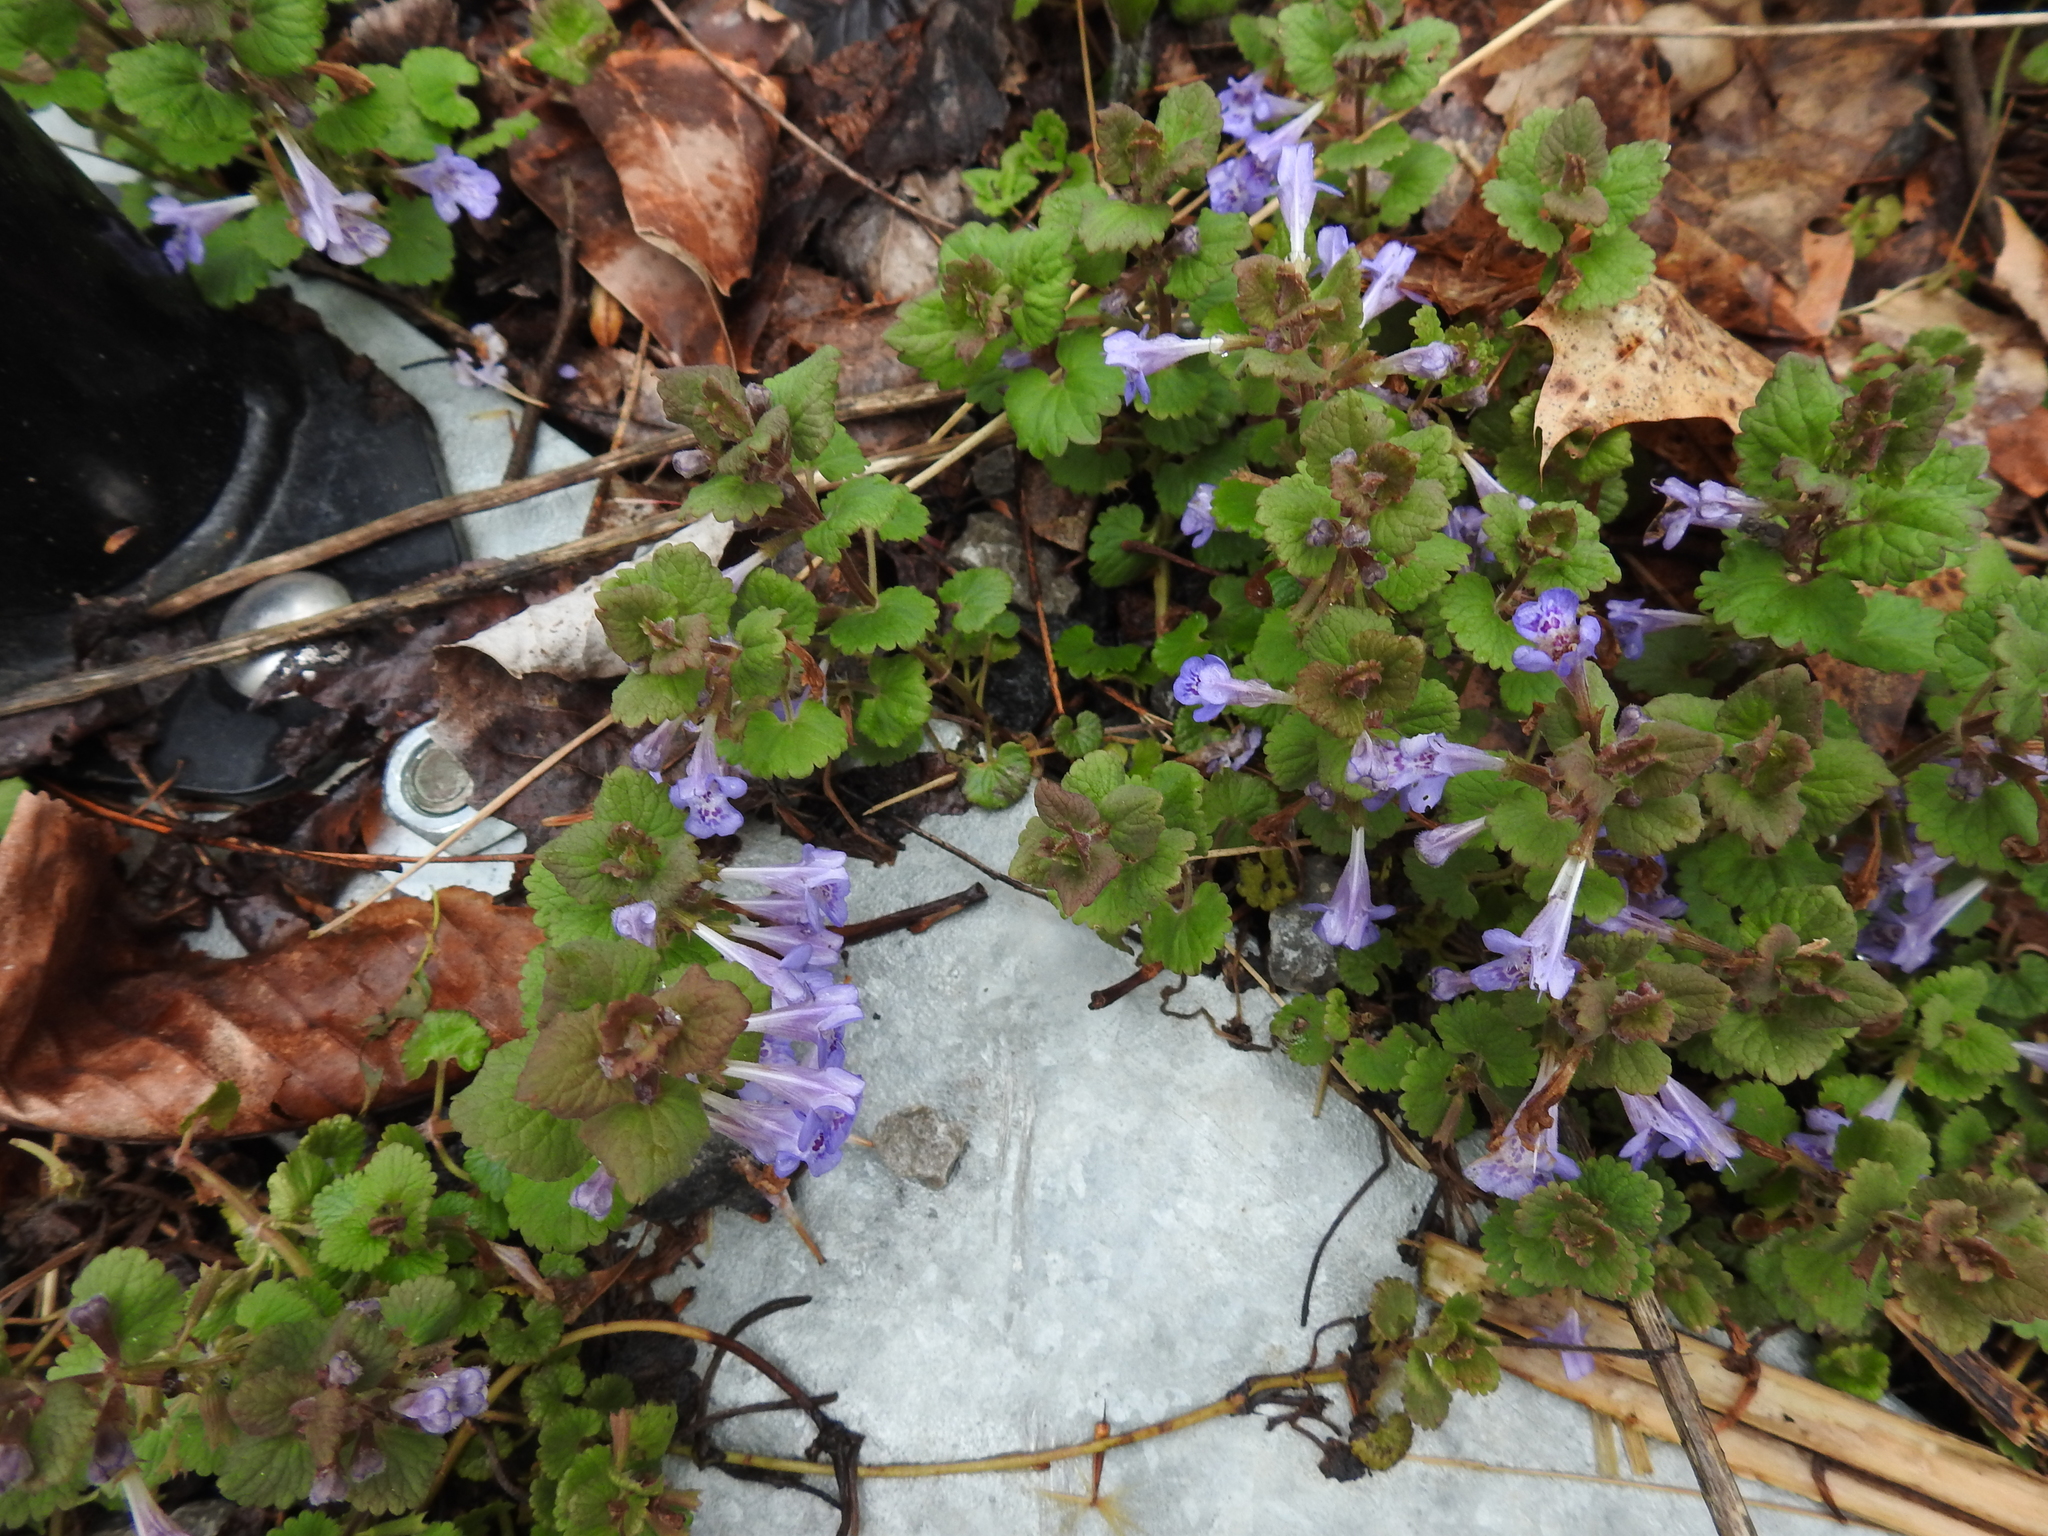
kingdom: Plantae
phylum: Tracheophyta
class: Magnoliopsida
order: Lamiales
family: Lamiaceae
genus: Glechoma
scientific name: Glechoma hederacea
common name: Ground ivy
